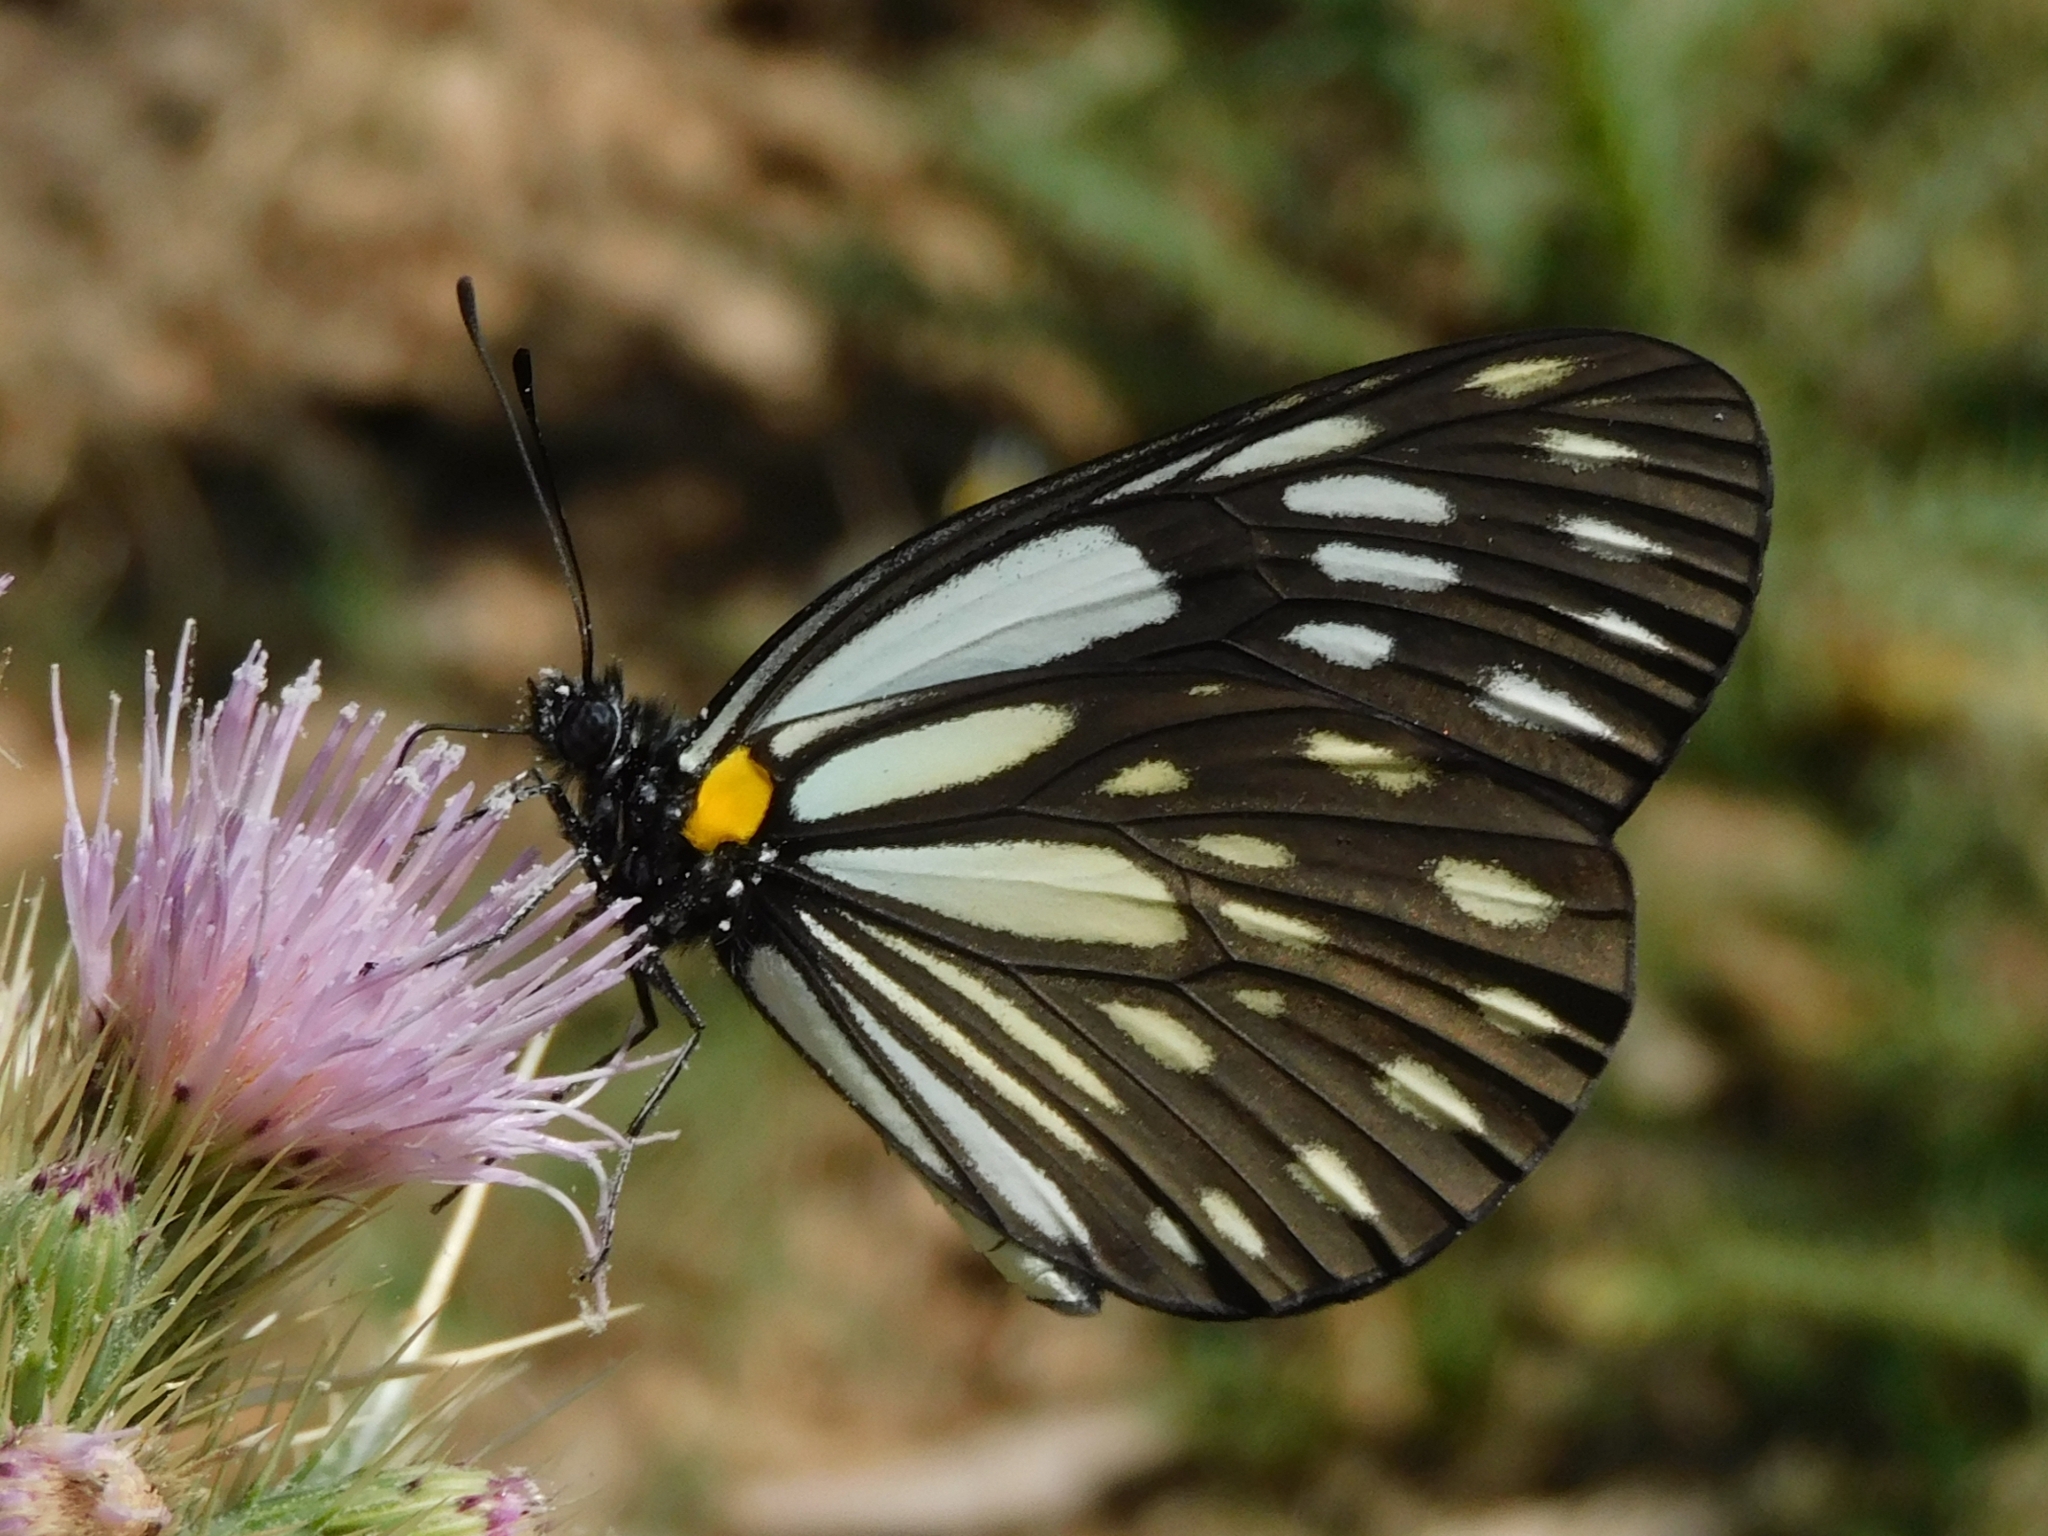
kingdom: Animalia
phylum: Arthropoda
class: Insecta
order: Lepidoptera
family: Pieridae
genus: Aporia
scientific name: Aporia agathon
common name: Great blackvein
